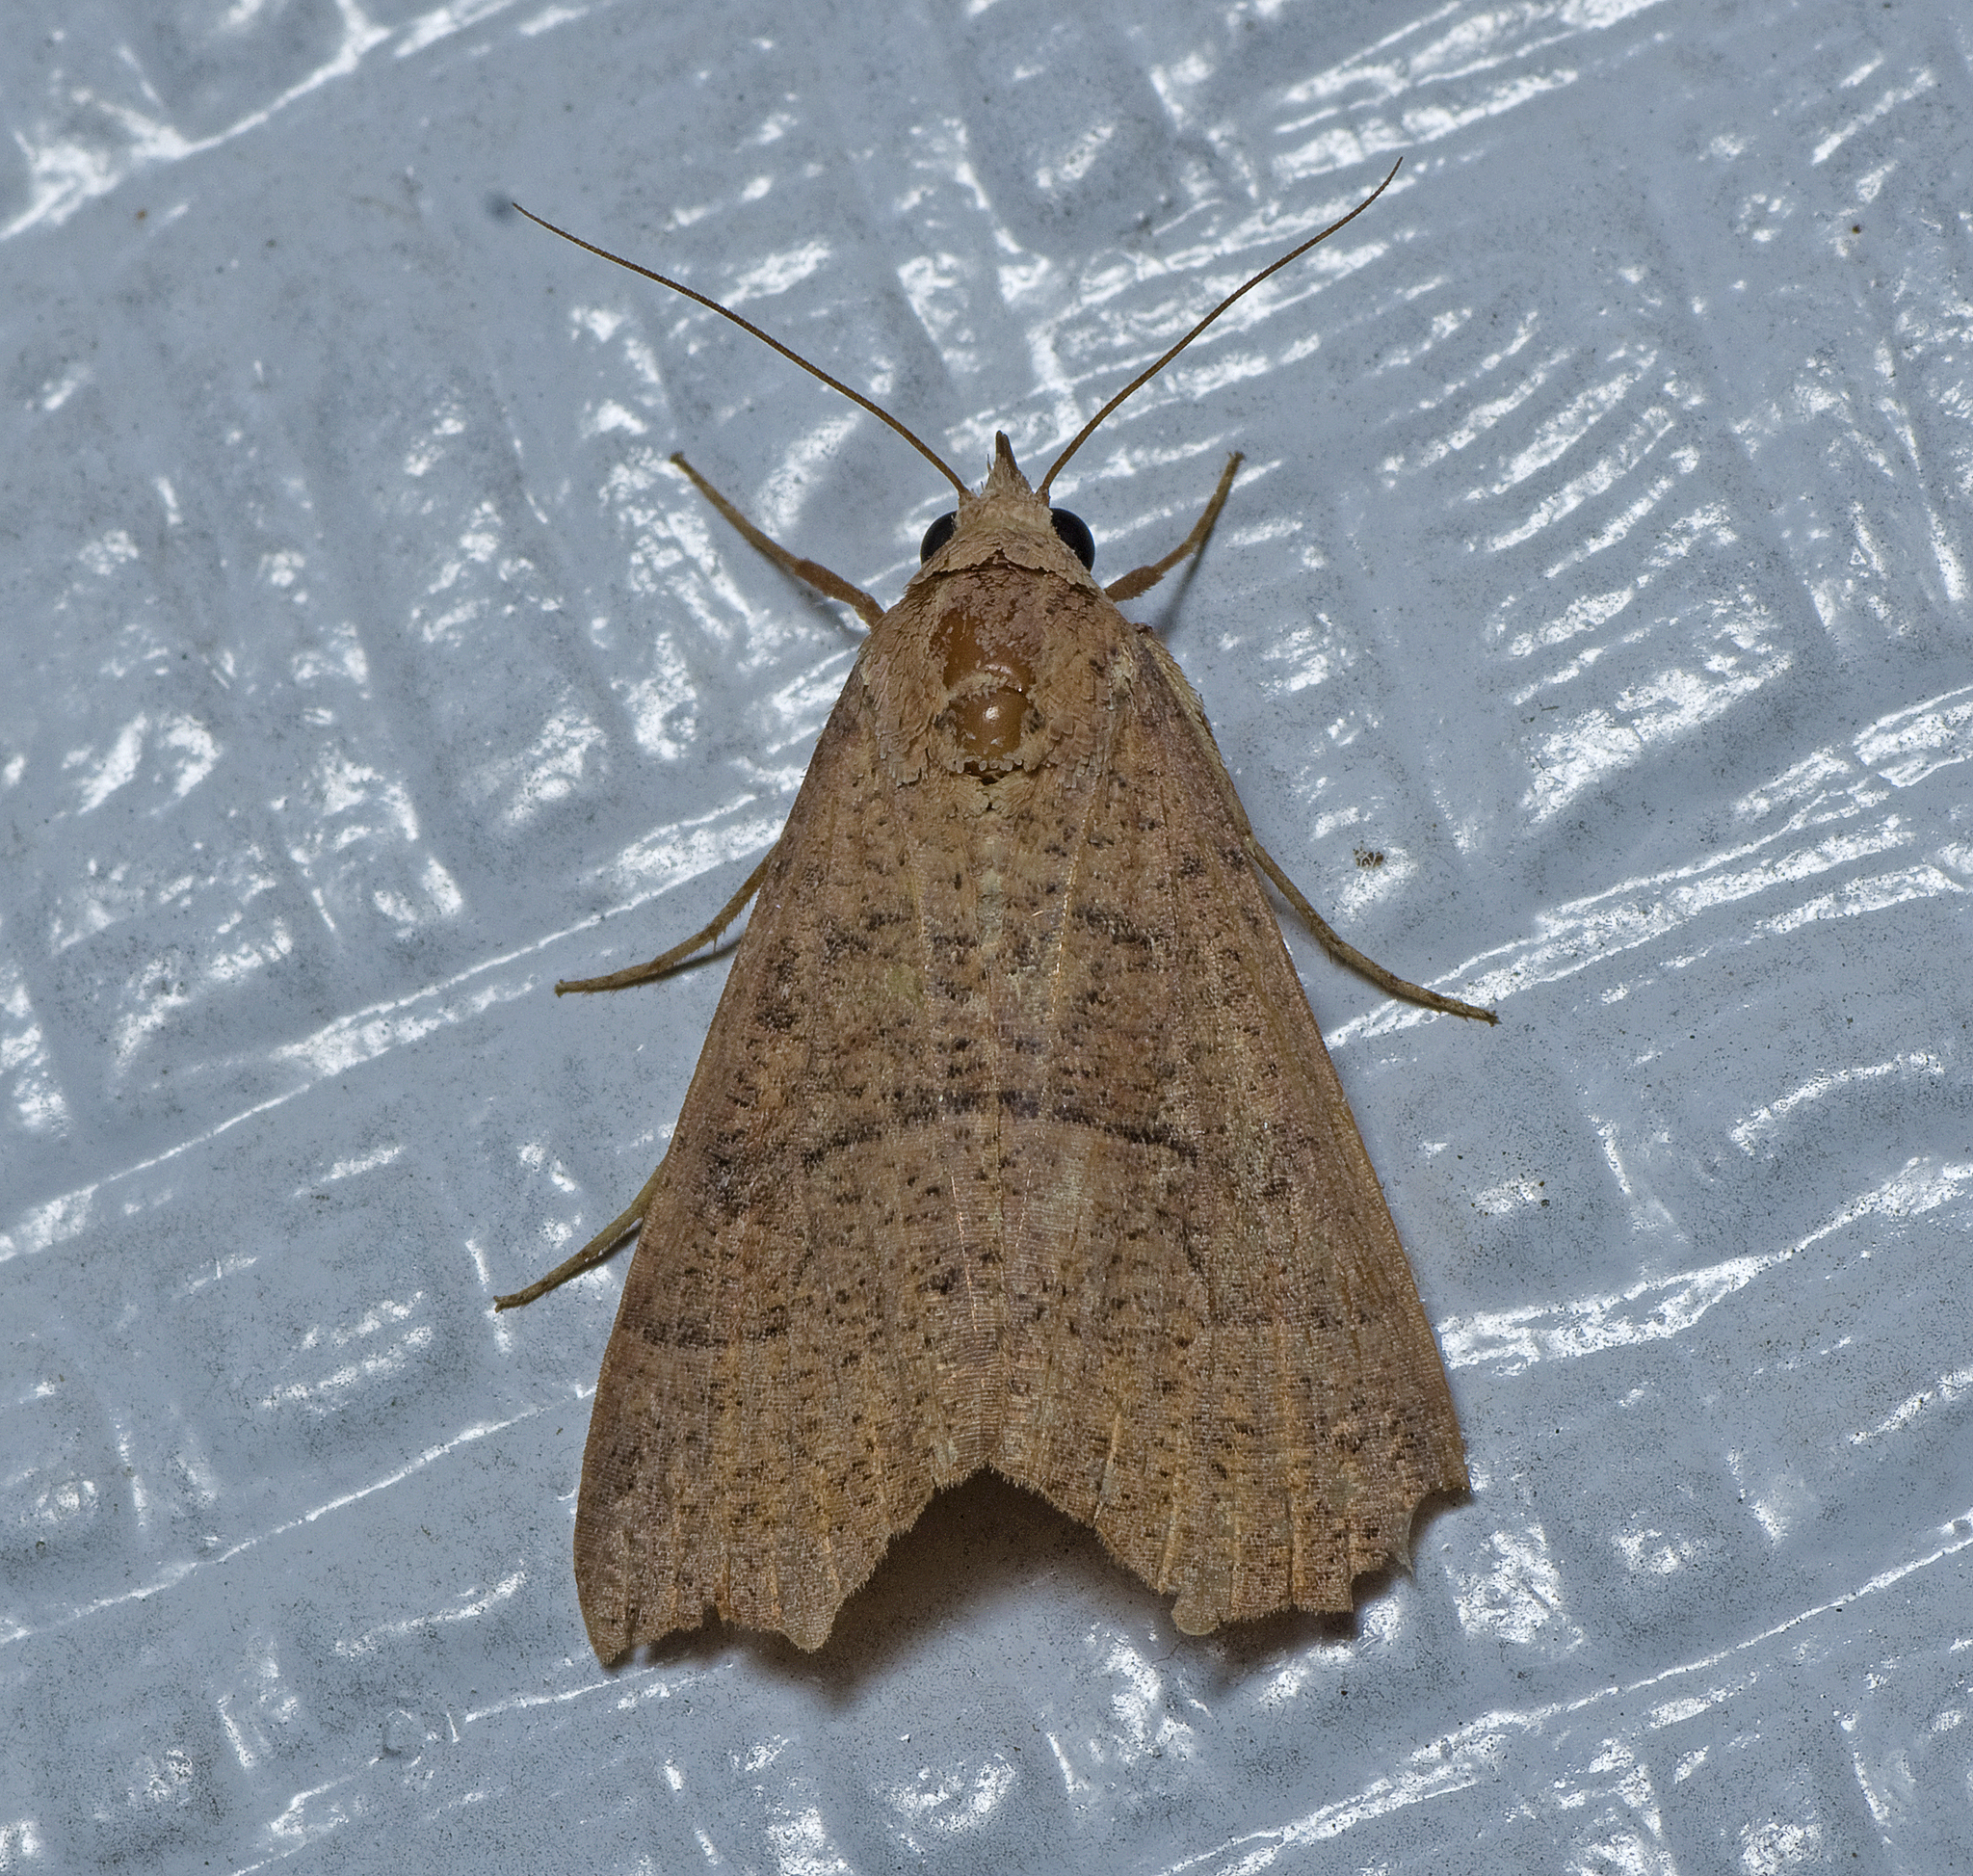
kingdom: Animalia
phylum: Arthropoda
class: Insecta
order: Lepidoptera
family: Erebidae
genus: Gonitis
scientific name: Gonitis involuta
